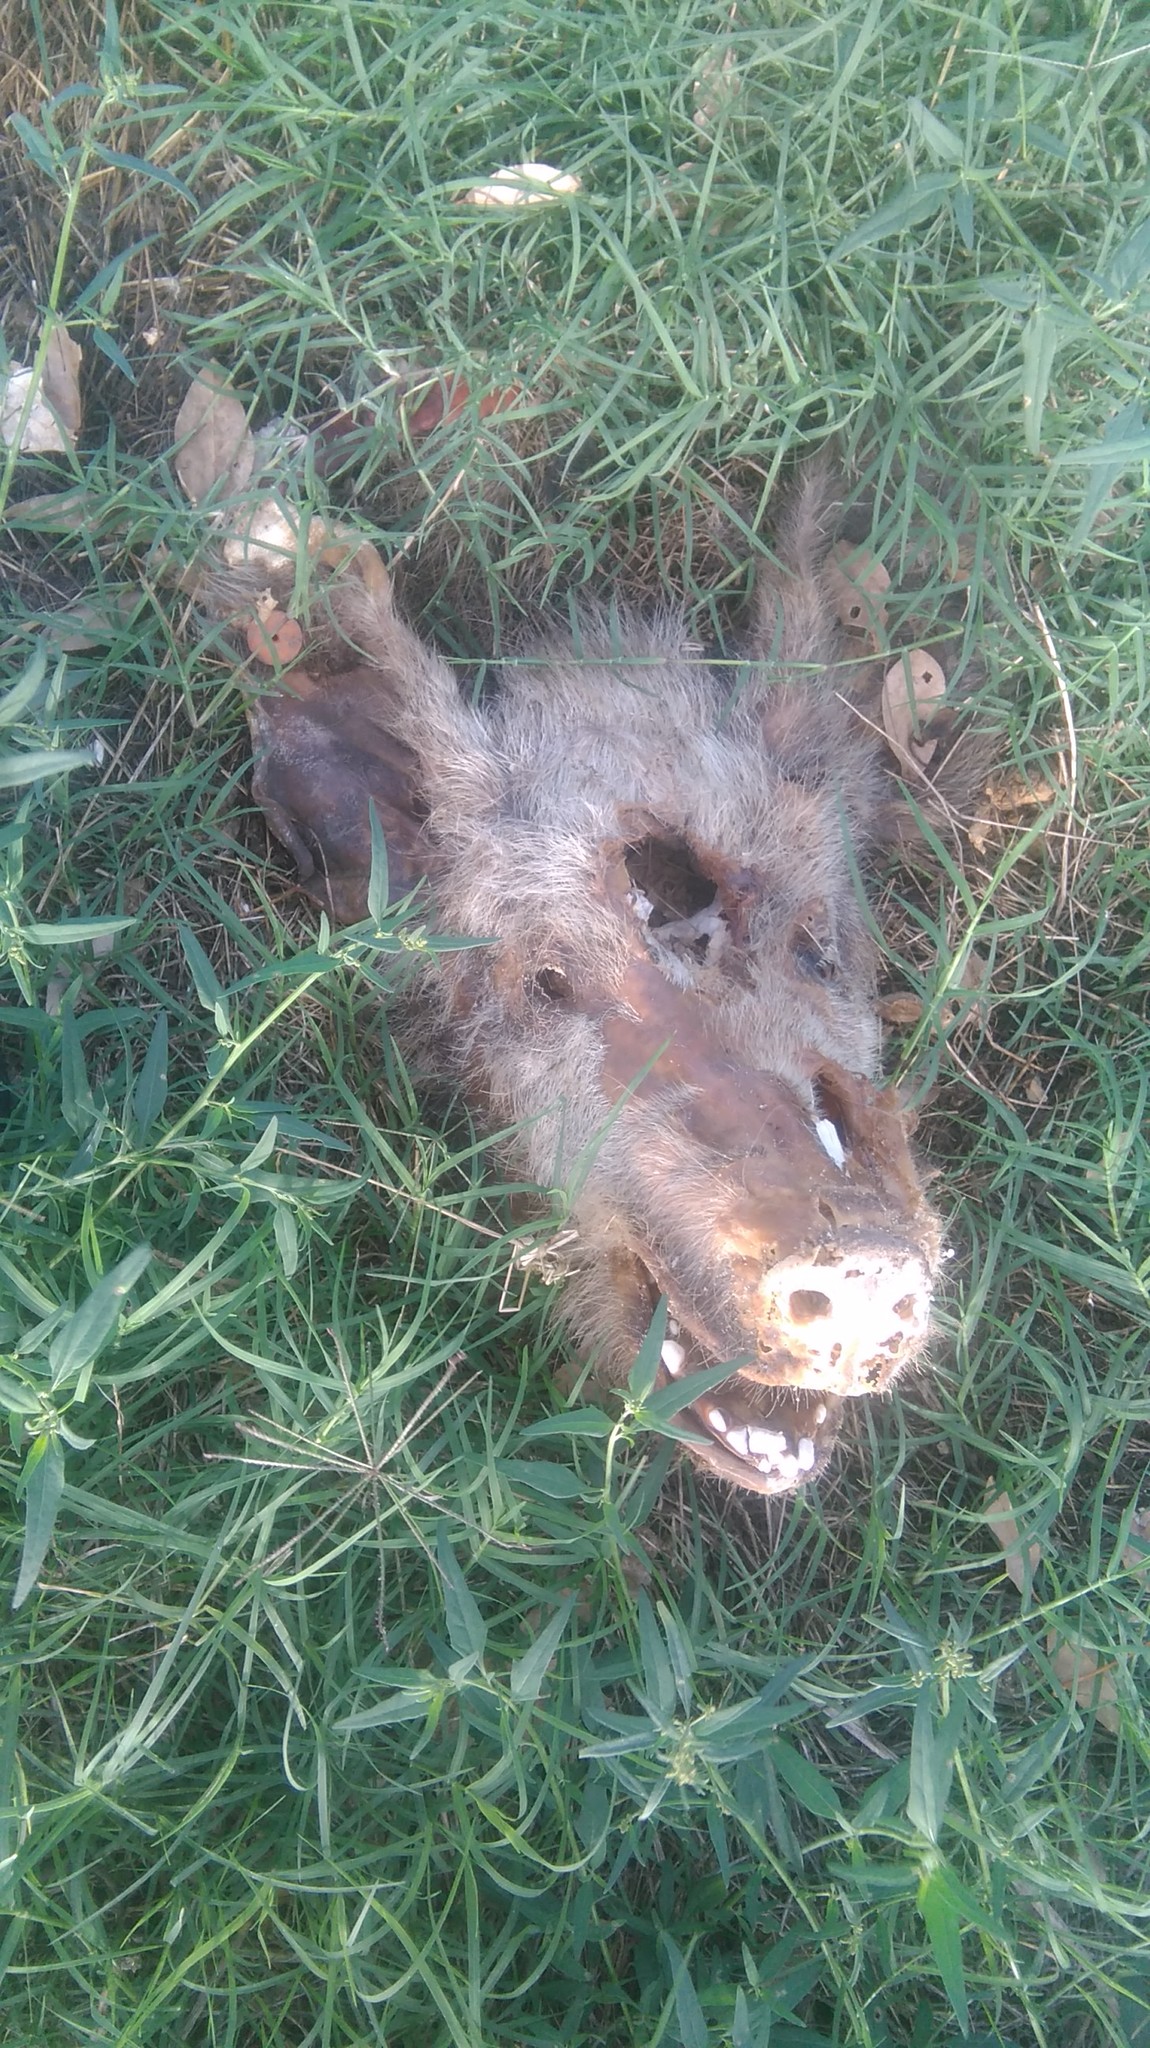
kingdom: Animalia
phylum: Chordata
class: Mammalia
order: Artiodactyla
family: Suidae
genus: Sus
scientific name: Sus scrofa
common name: Wild boar
